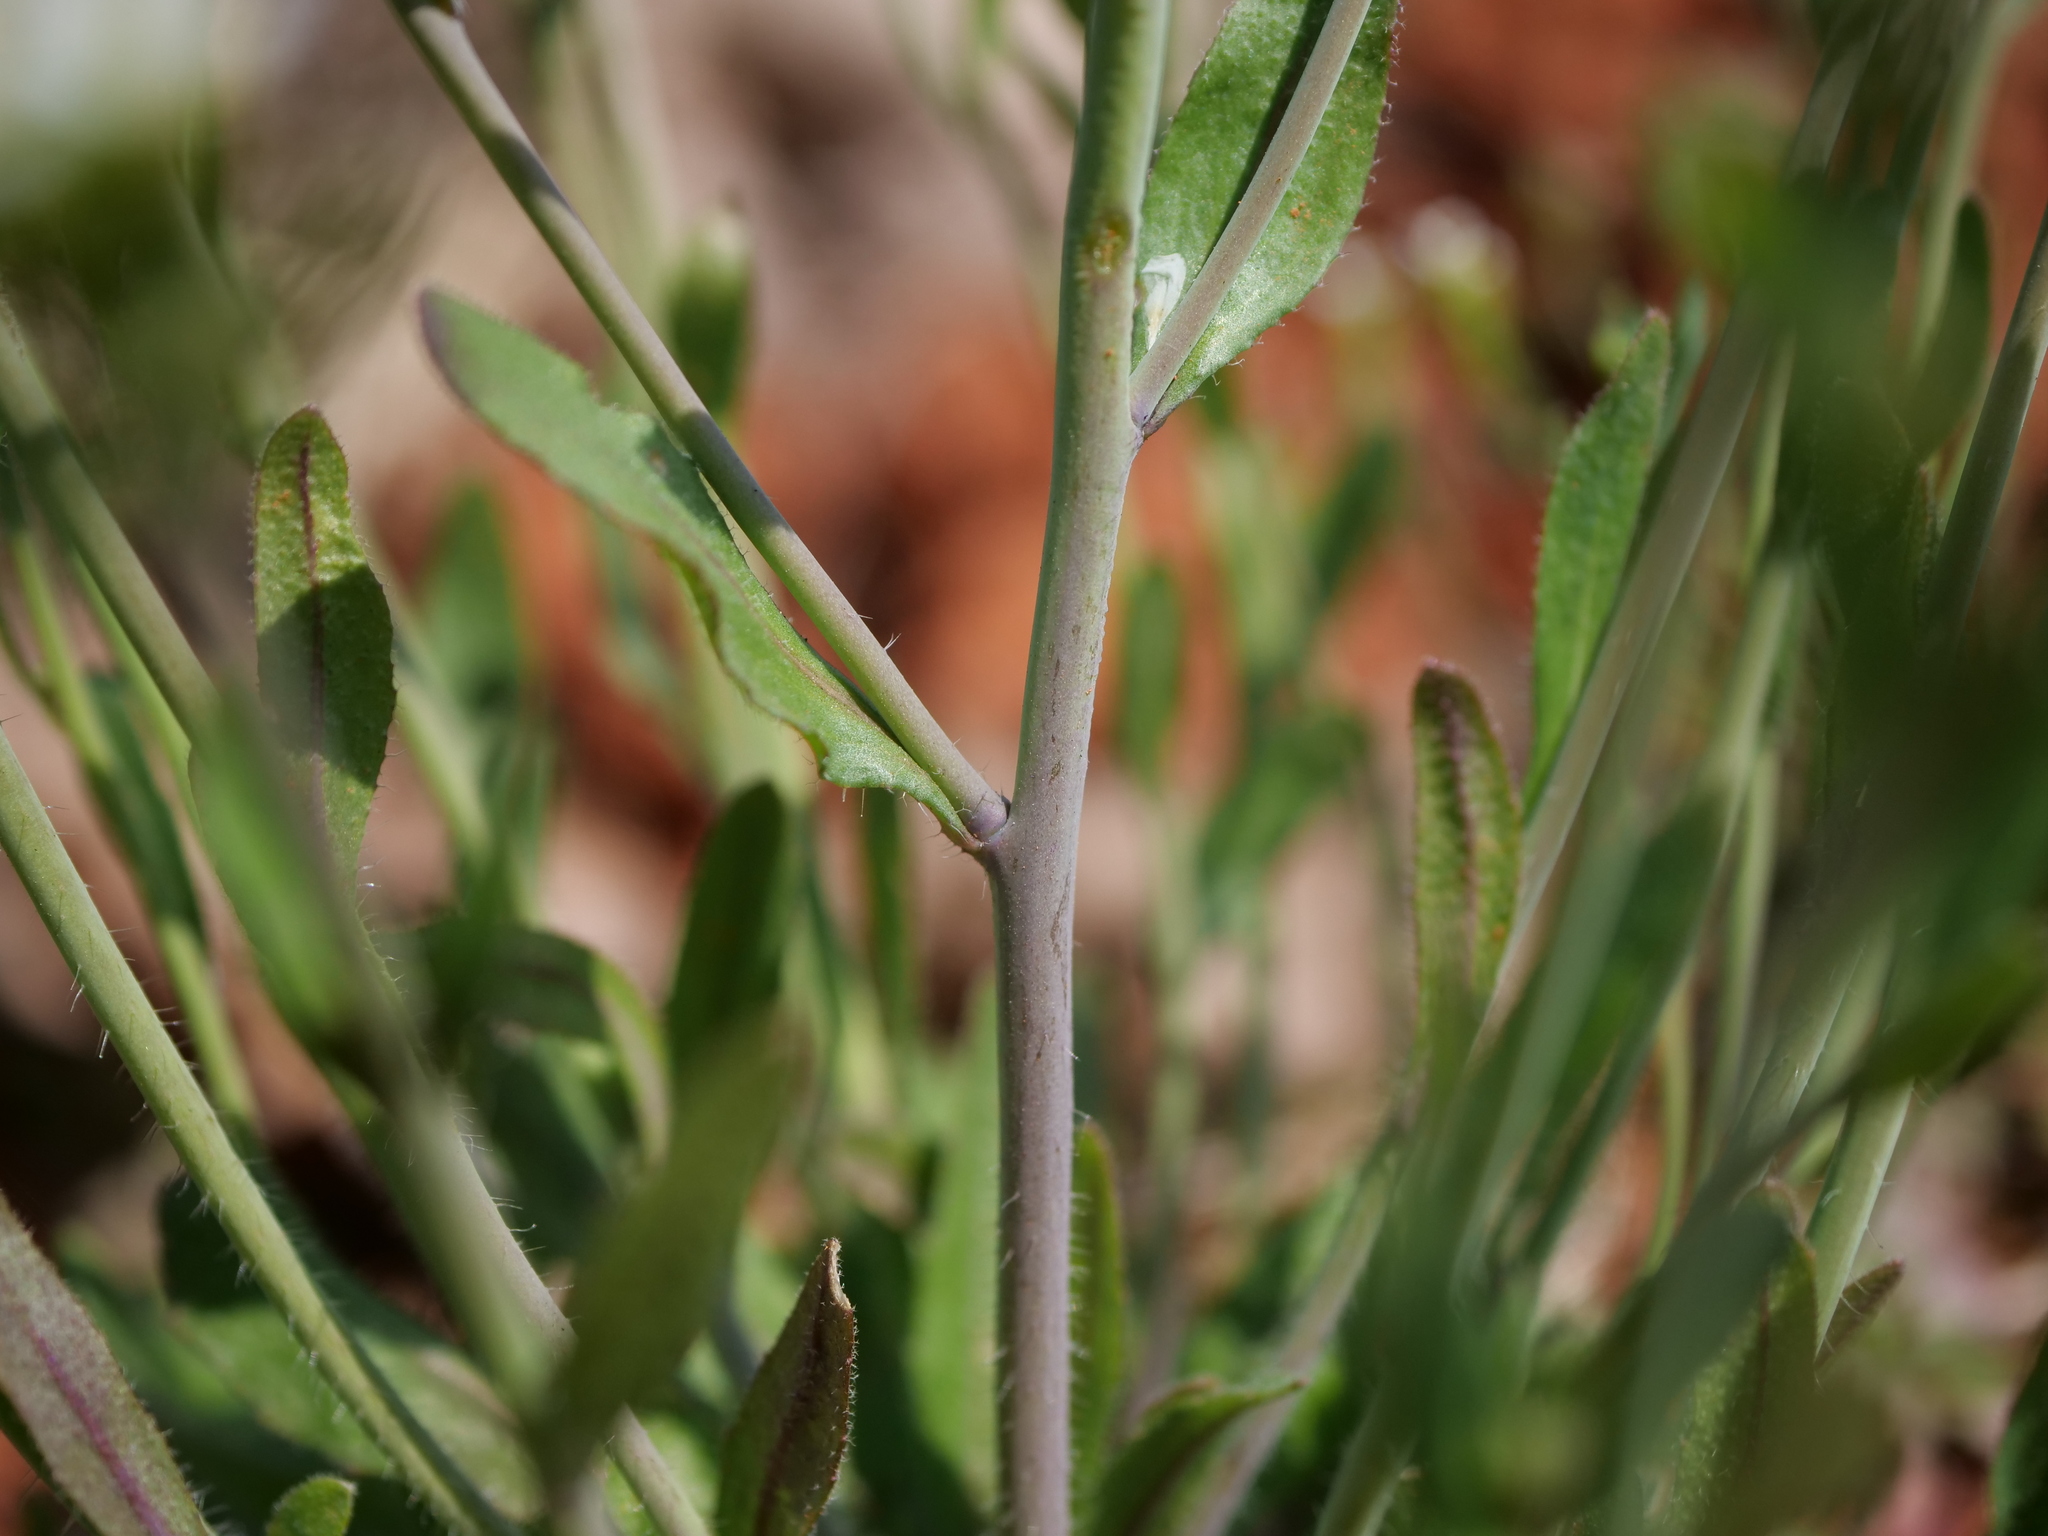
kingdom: Plantae
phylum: Tracheophyta
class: Magnoliopsida
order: Brassicales
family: Brassicaceae
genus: Arabidopsis
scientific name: Arabidopsis thaliana
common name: Thale cress
